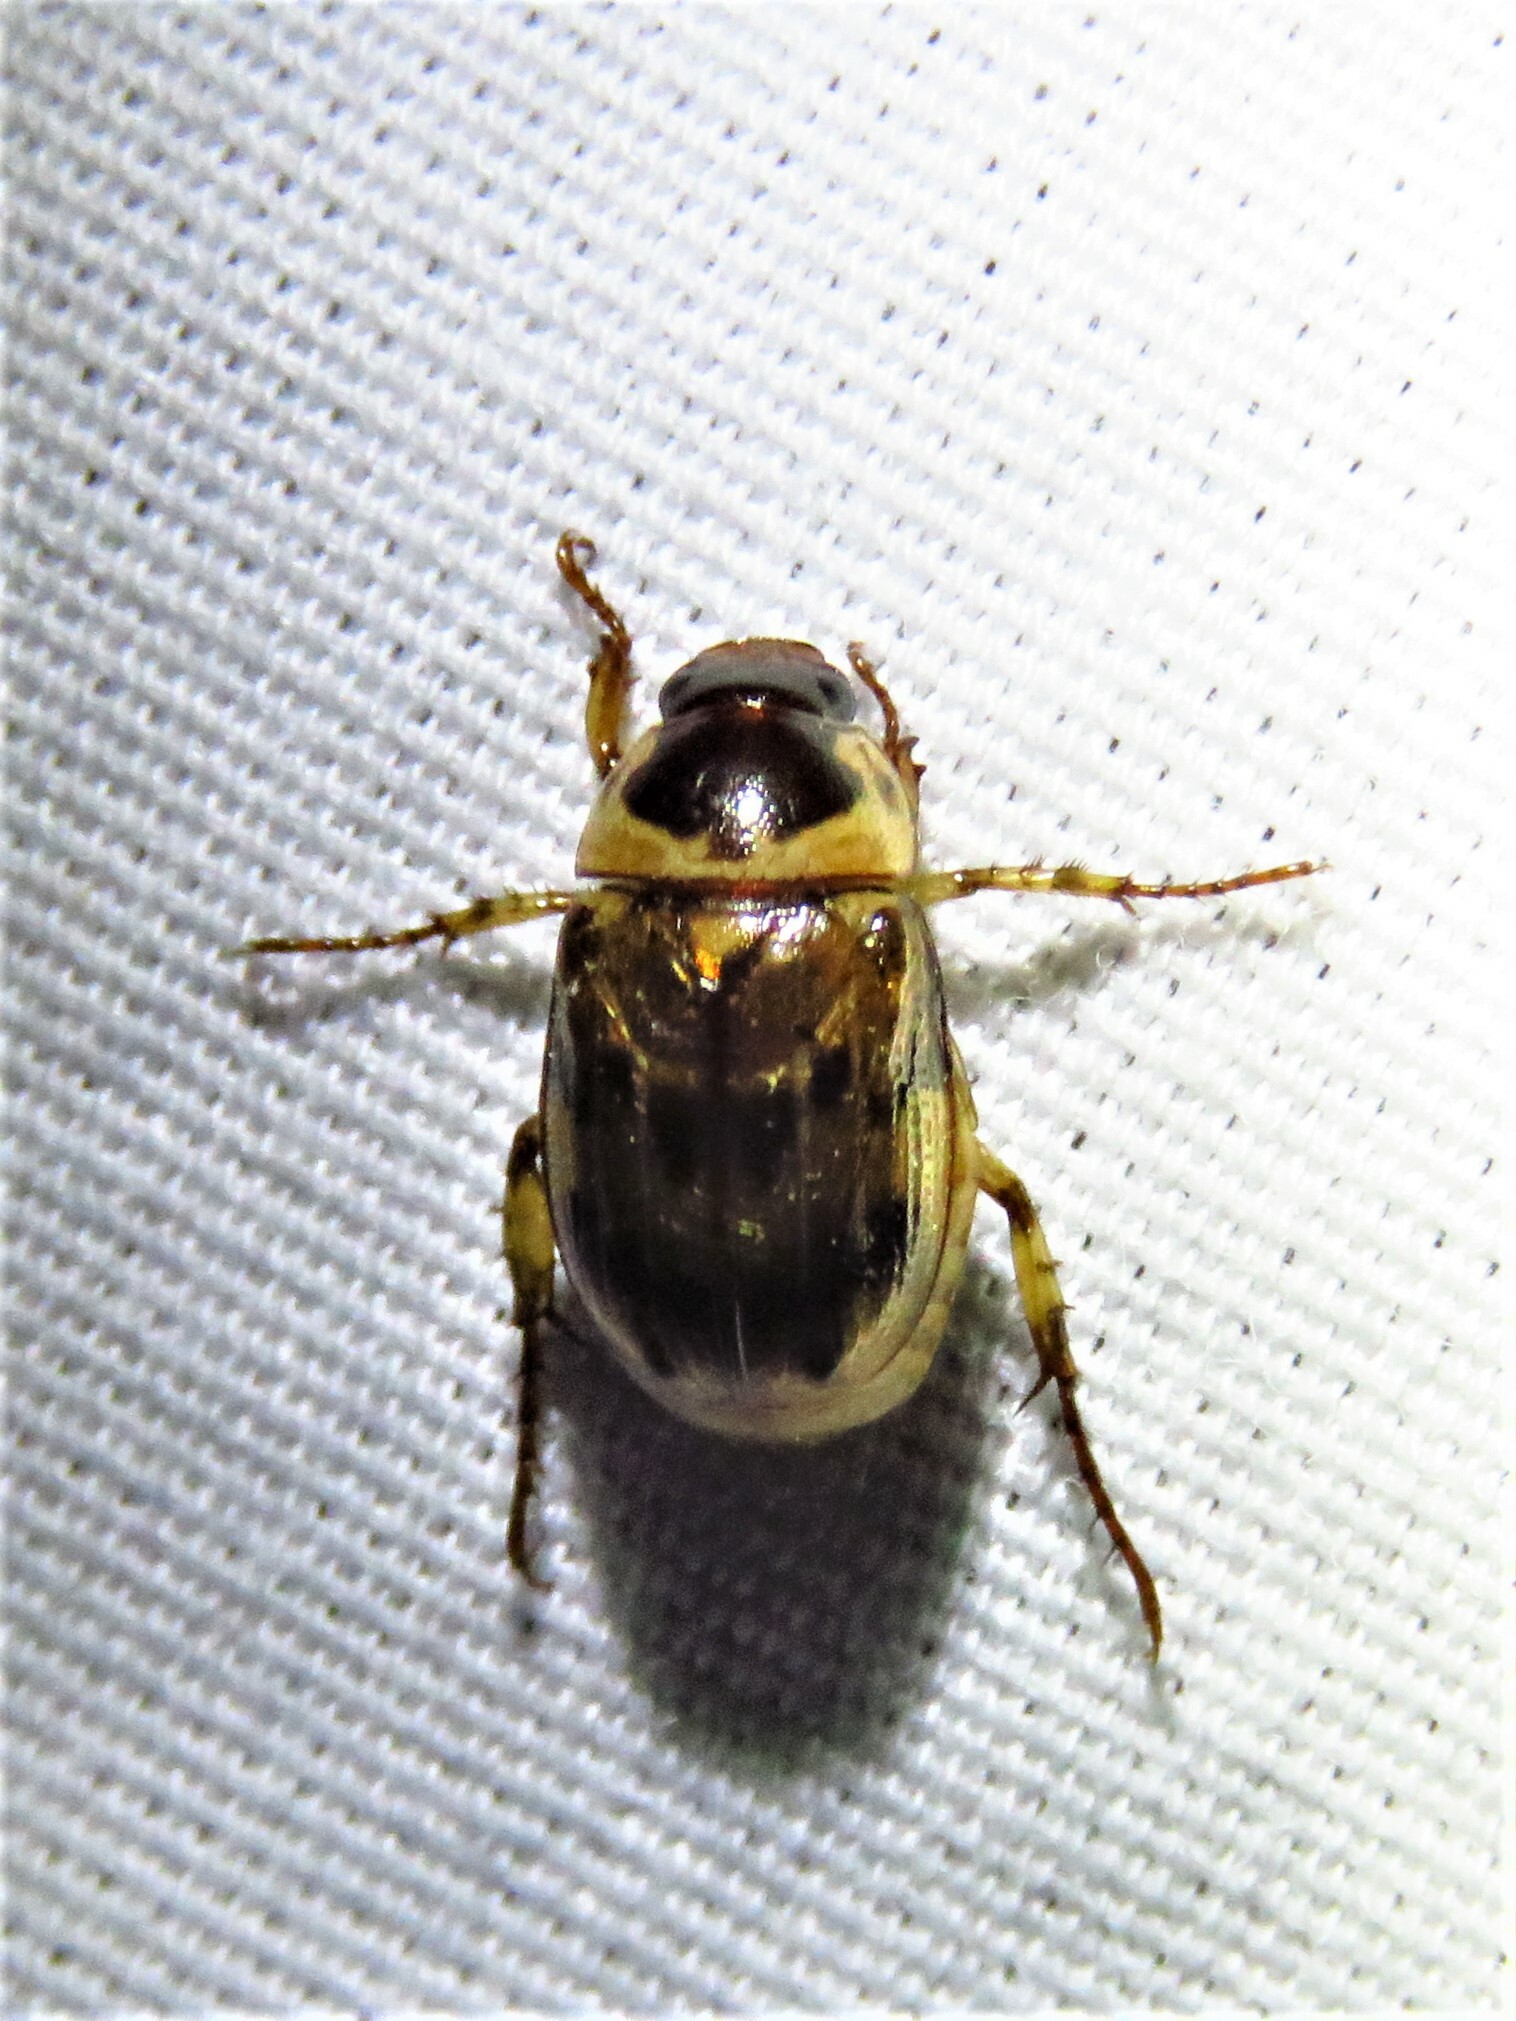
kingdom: Animalia
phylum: Arthropoda
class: Insecta
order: Coleoptera
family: Scarabaeidae
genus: Anomala
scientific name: Anomala innuba
